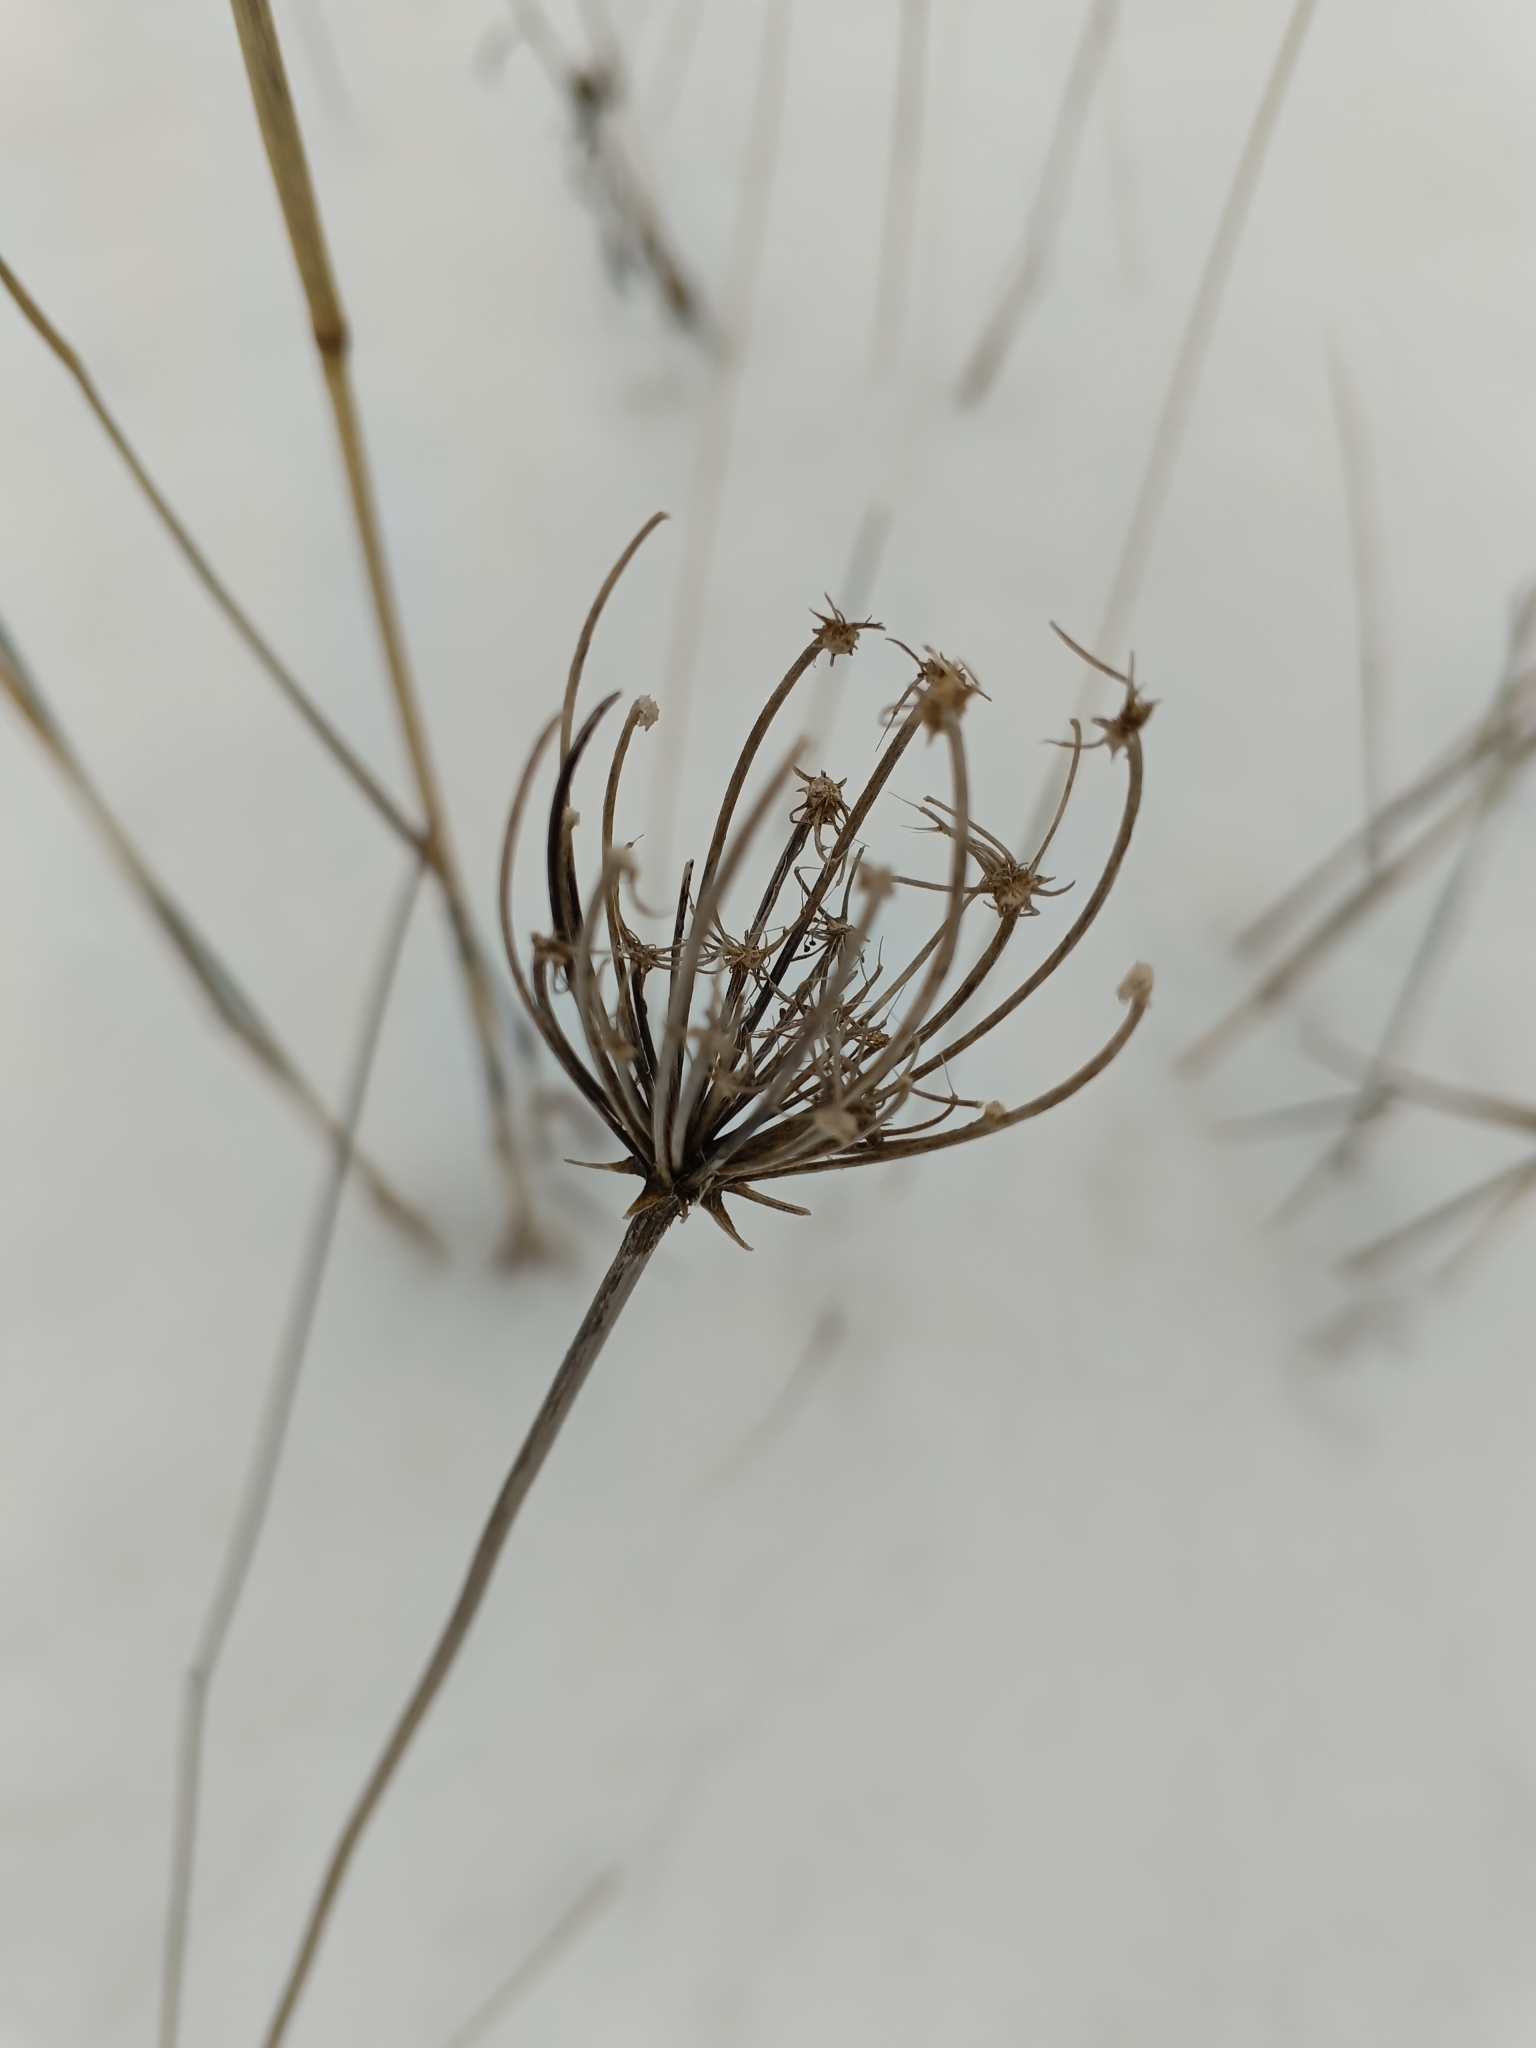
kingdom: Plantae
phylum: Tracheophyta
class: Magnoliopsida
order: Apiales
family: Apiaceae
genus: Daucus
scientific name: Daucus carota
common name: Wild carrot
